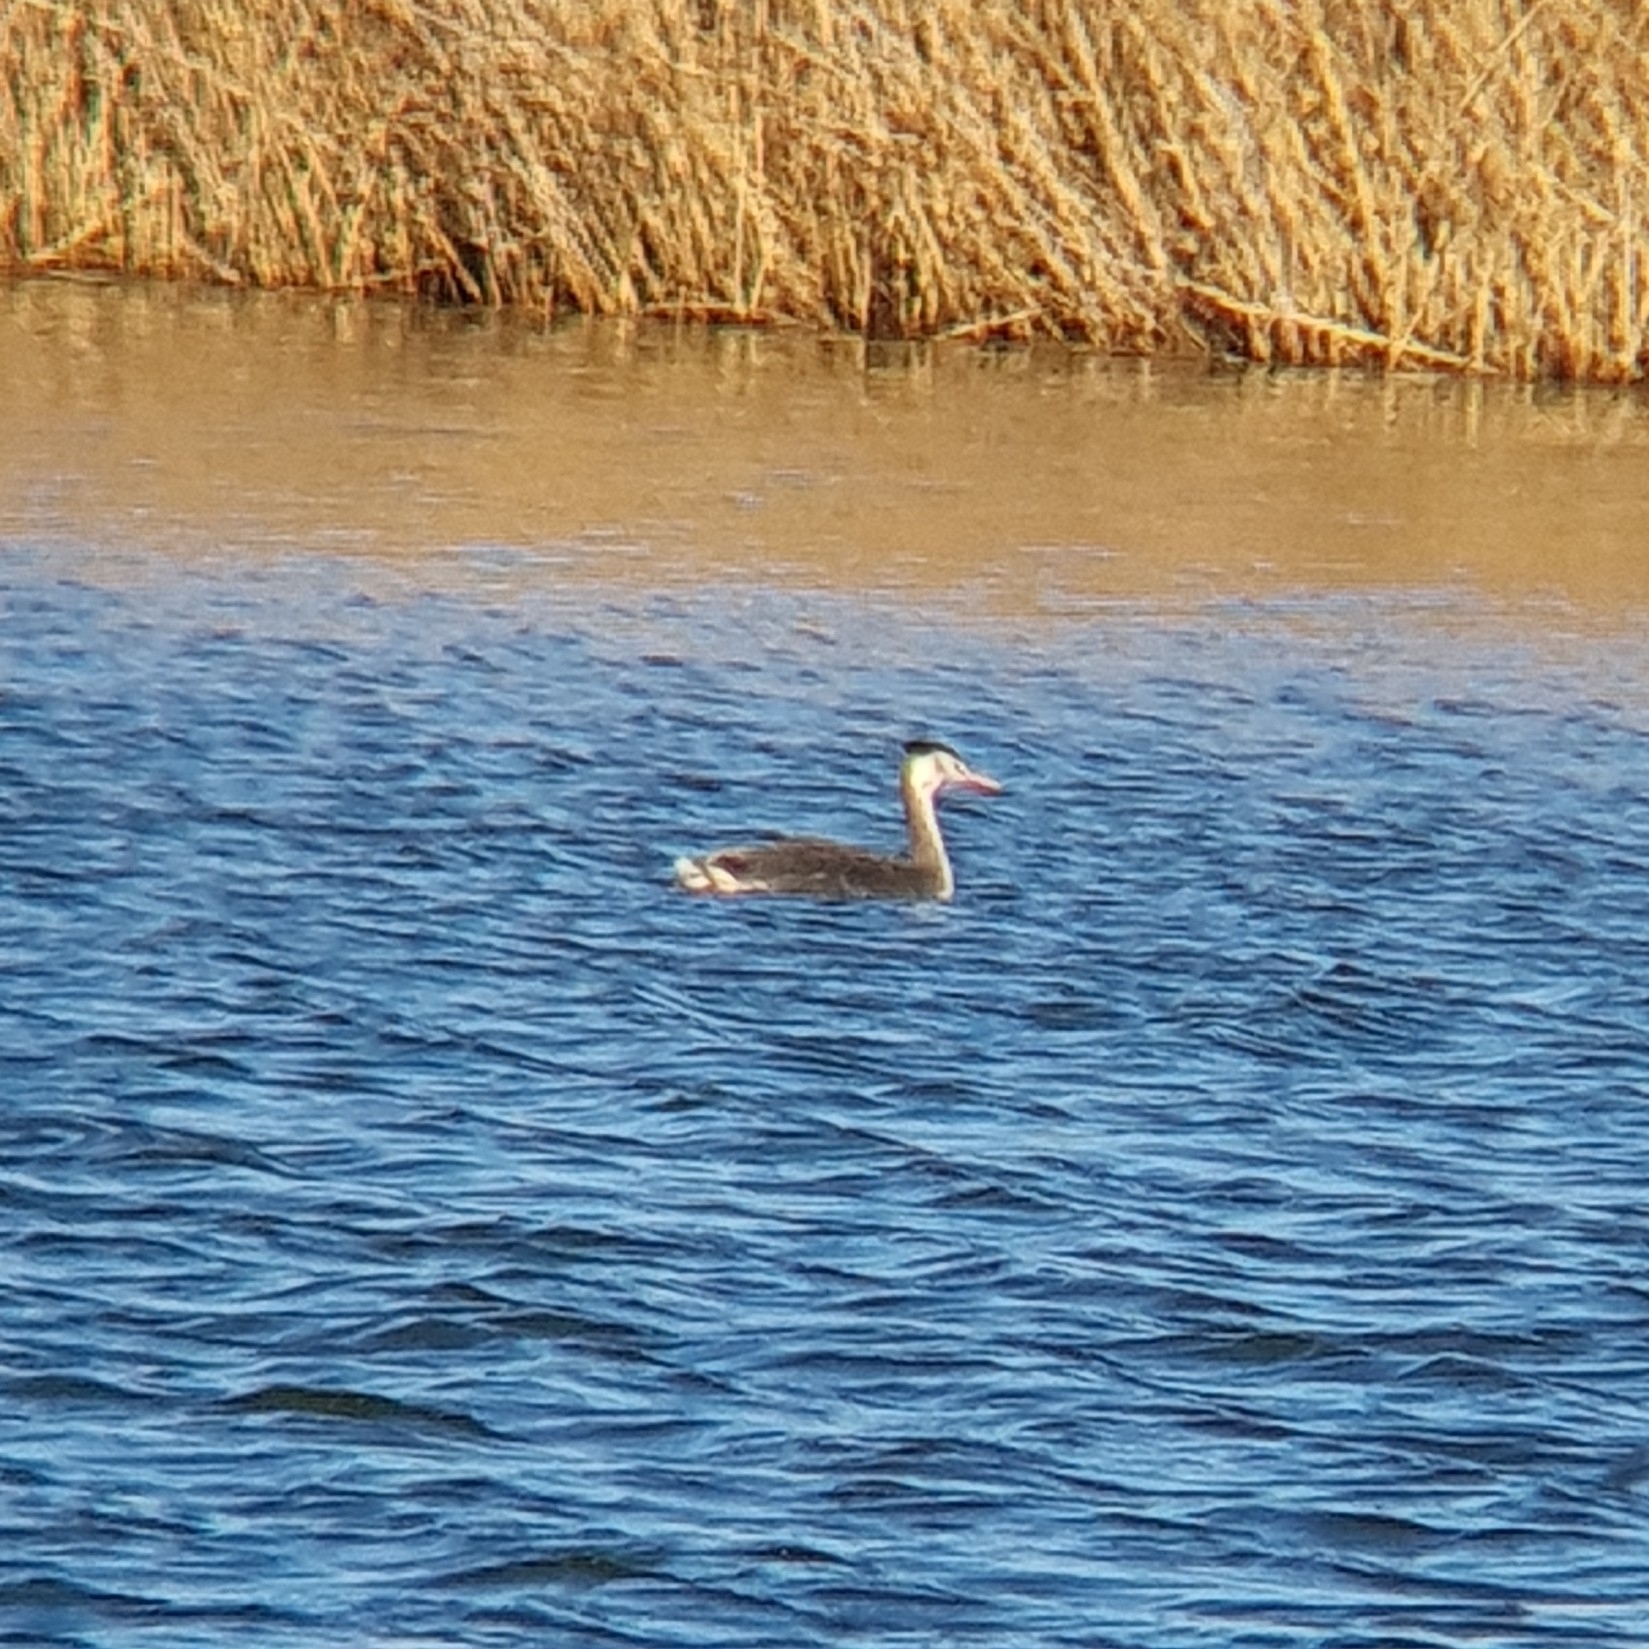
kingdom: Animalia
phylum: Chordata
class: Aves
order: Podicipediformes
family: Podicipedidae
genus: Podiceps
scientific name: Podiceps cristatus
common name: Great crested grebe
